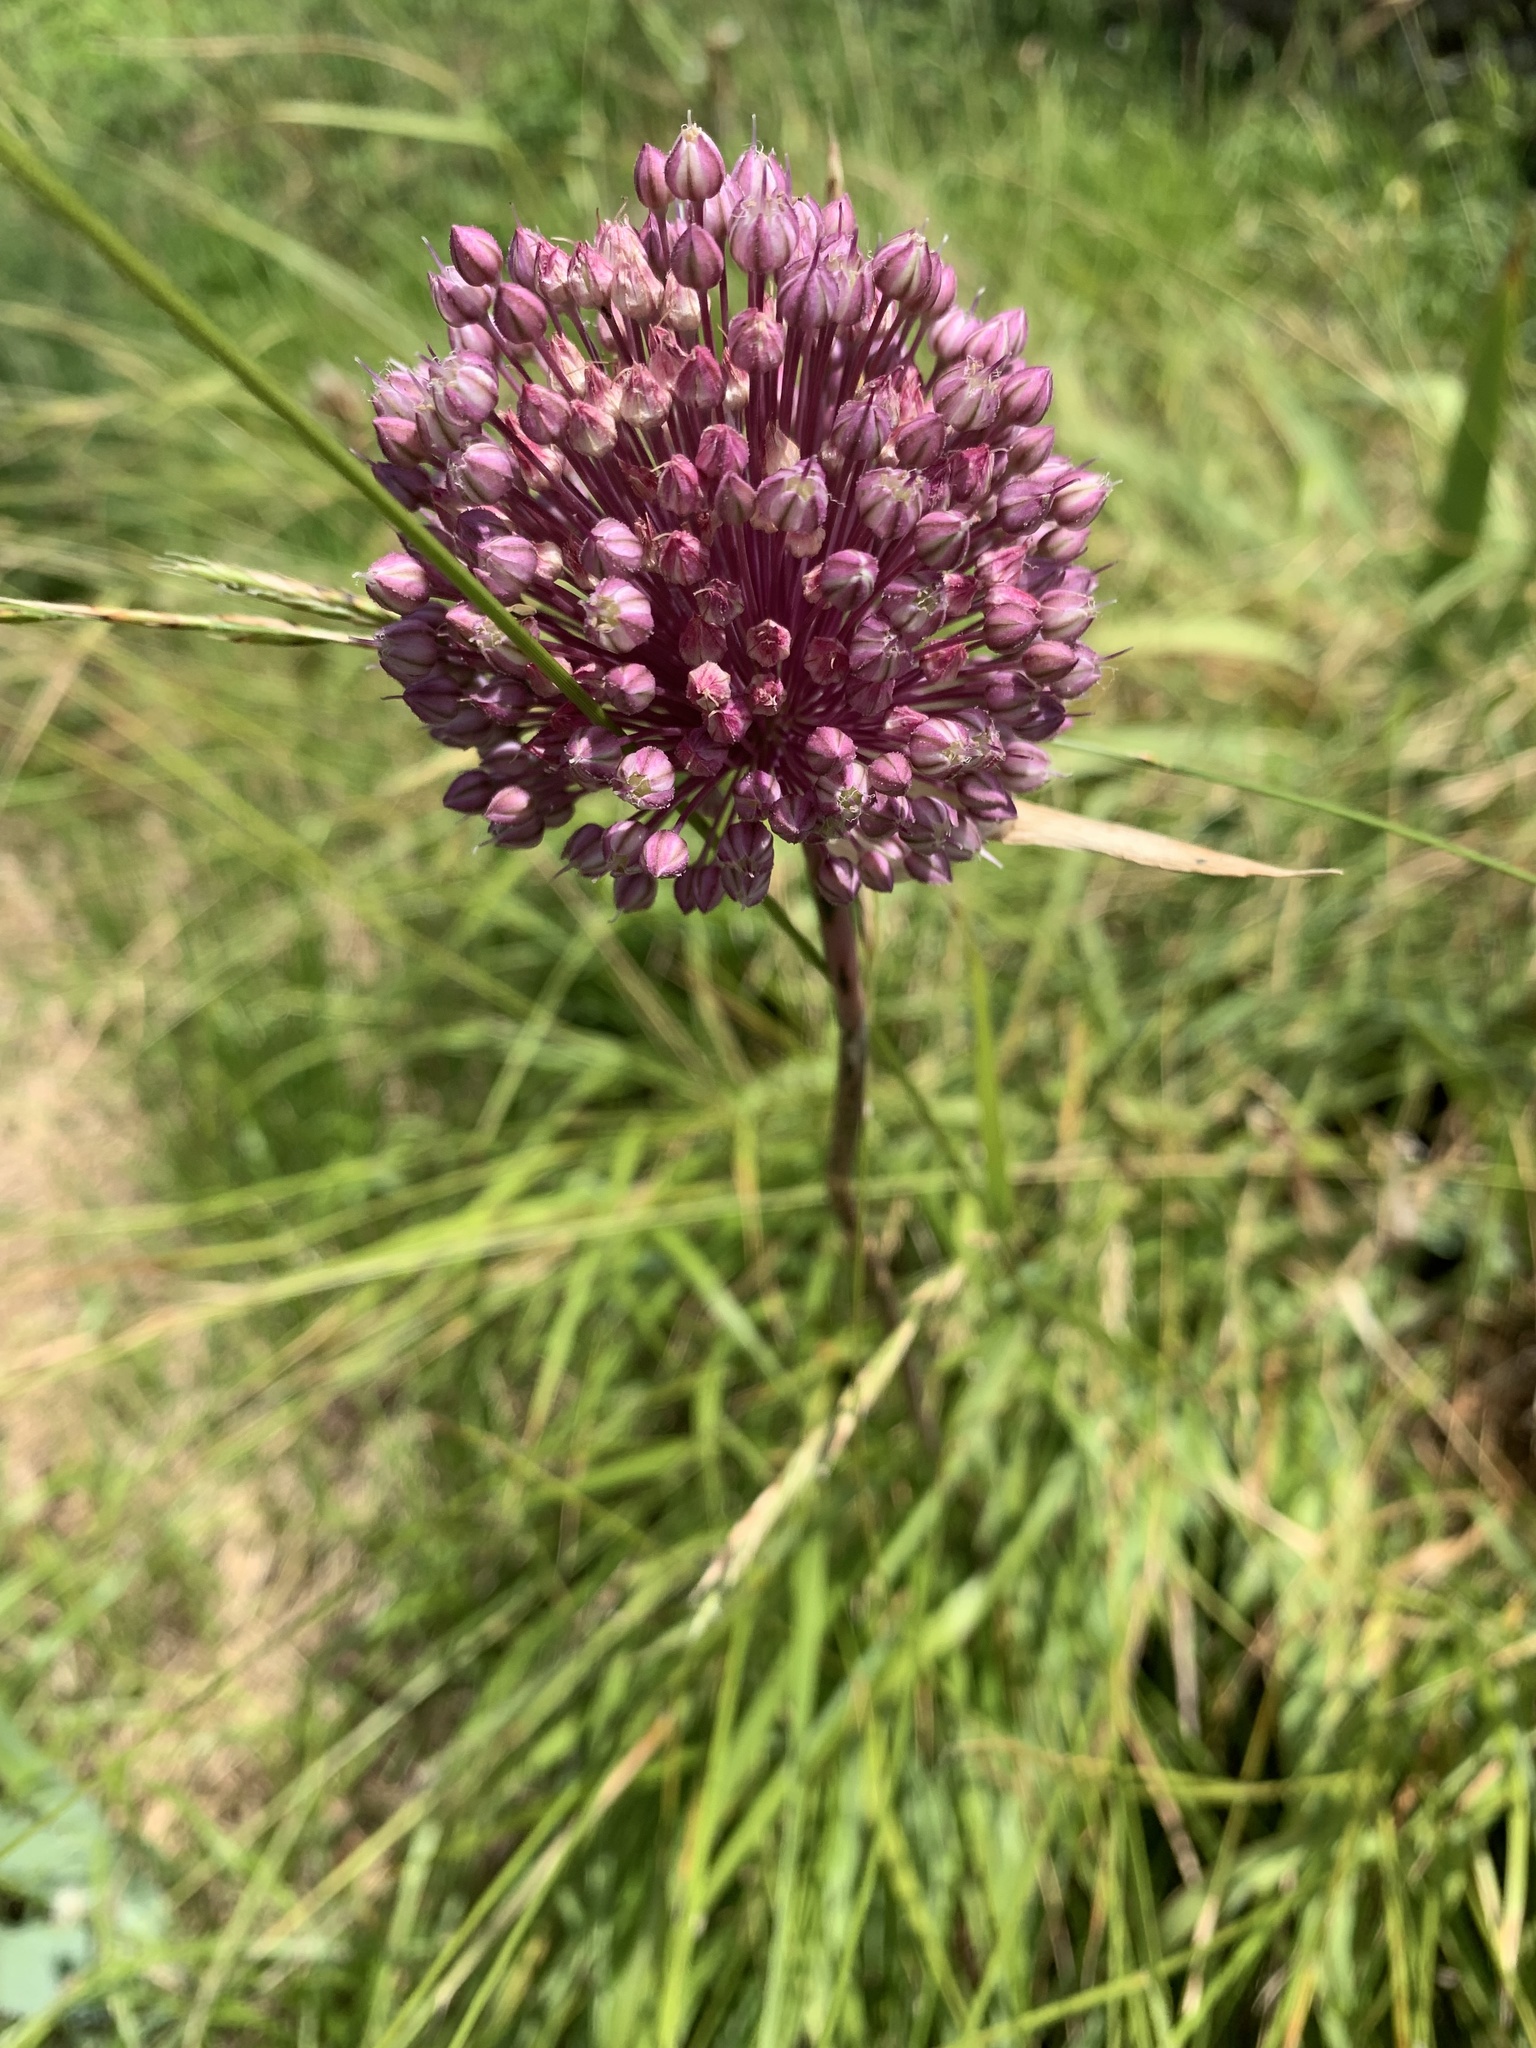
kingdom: Plantae
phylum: Tracheophyta
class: Liliopsida
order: Asparagales
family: Amaryllidaceae
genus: Allium
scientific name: Allium ampeloprasum
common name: Wild leek
